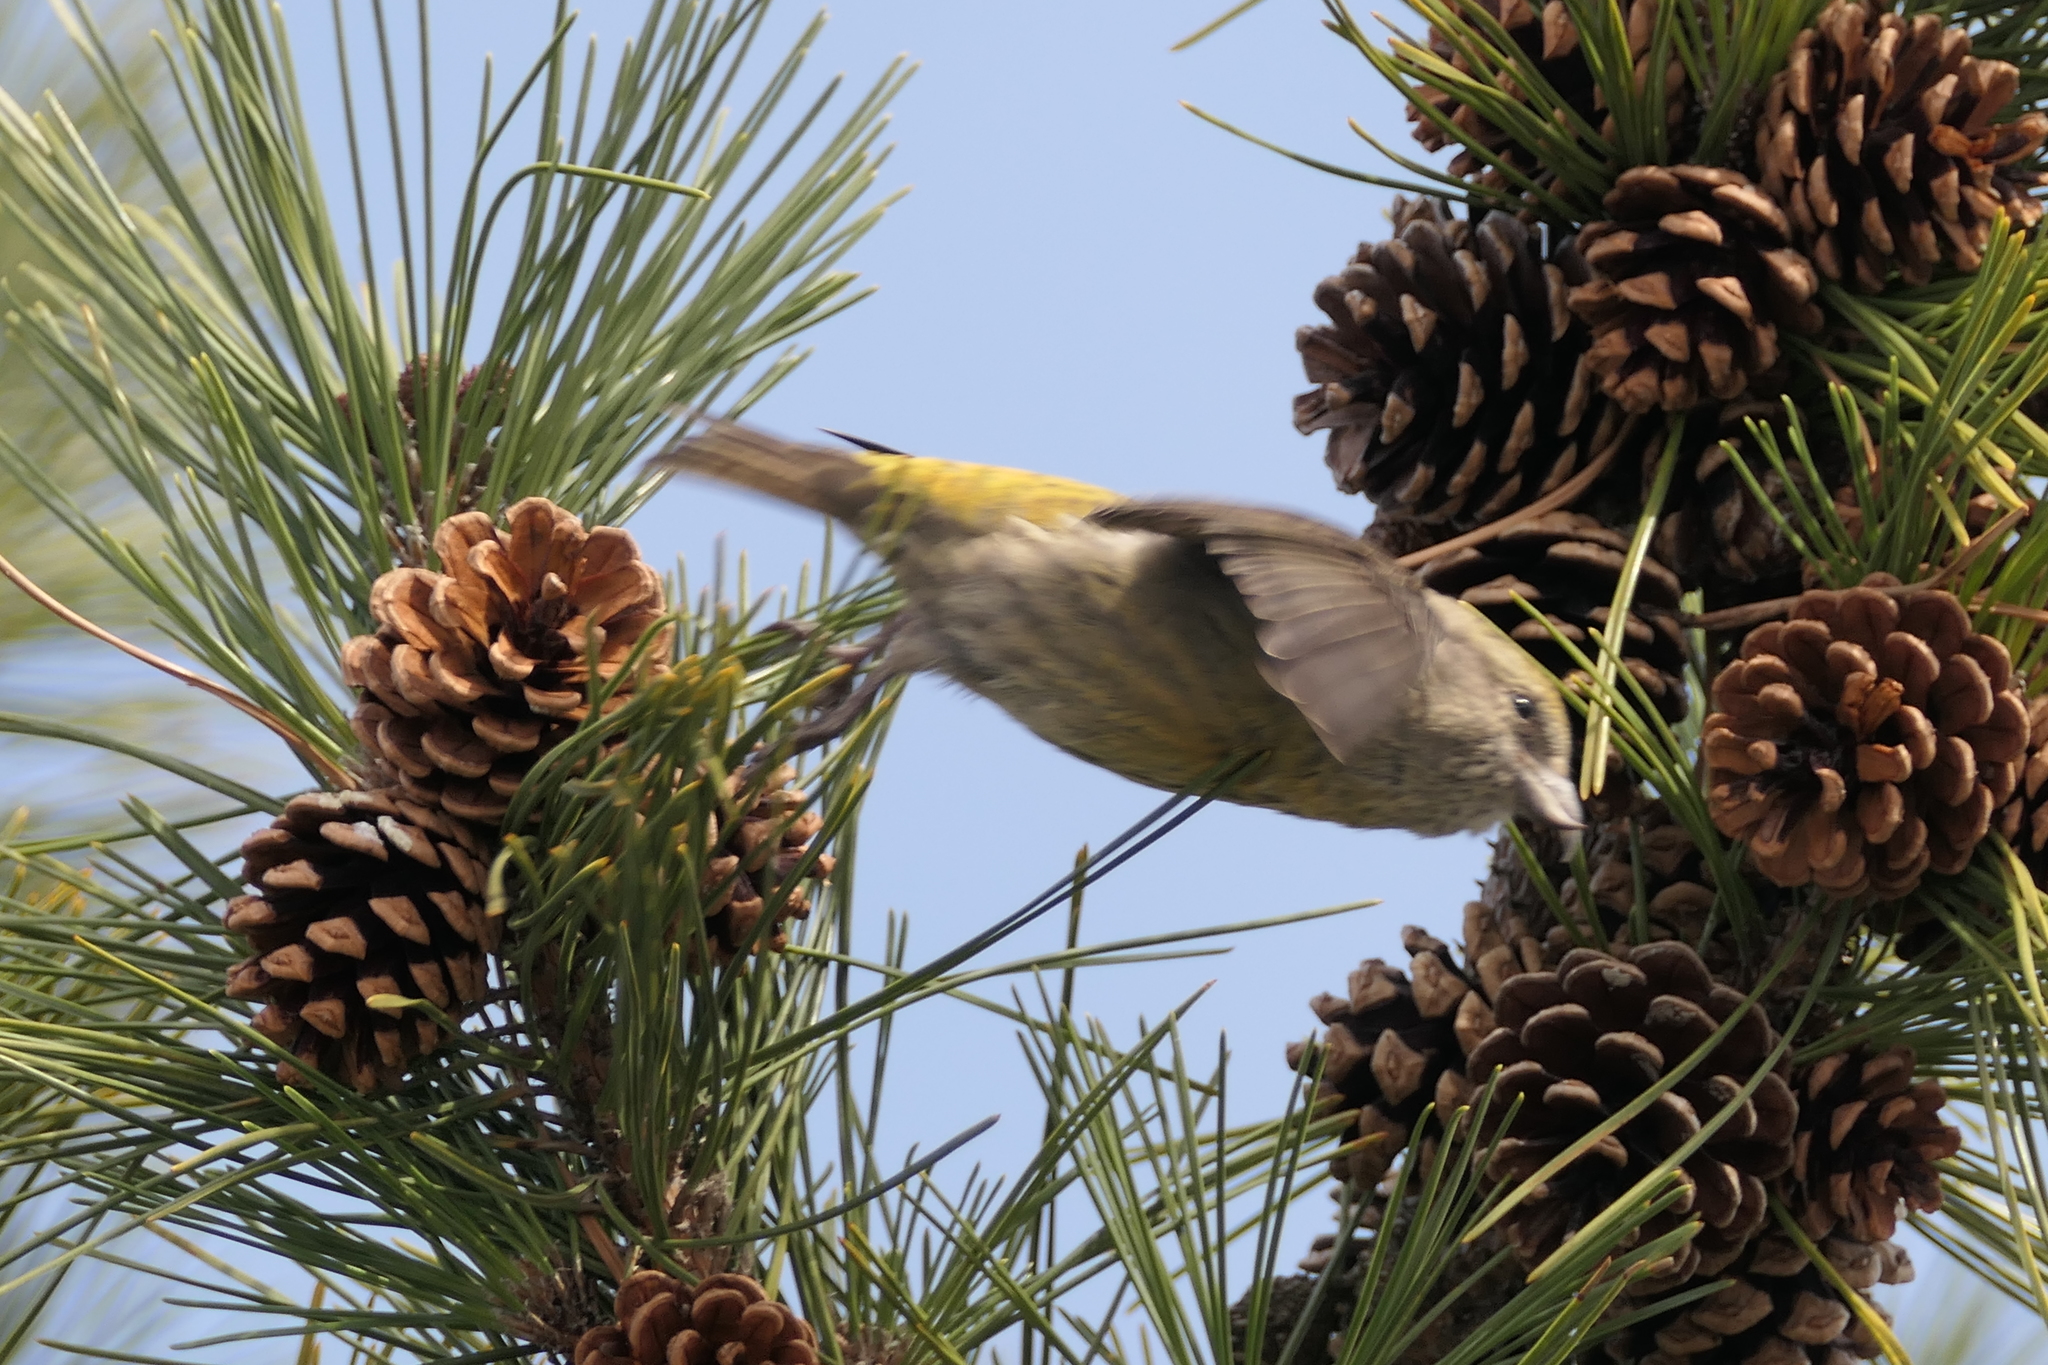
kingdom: Animalia
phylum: Chordata
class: Aves
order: Passeriformes
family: Fringillidae
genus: Loxia
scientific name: Loxia curvirostra
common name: Red crossbill
